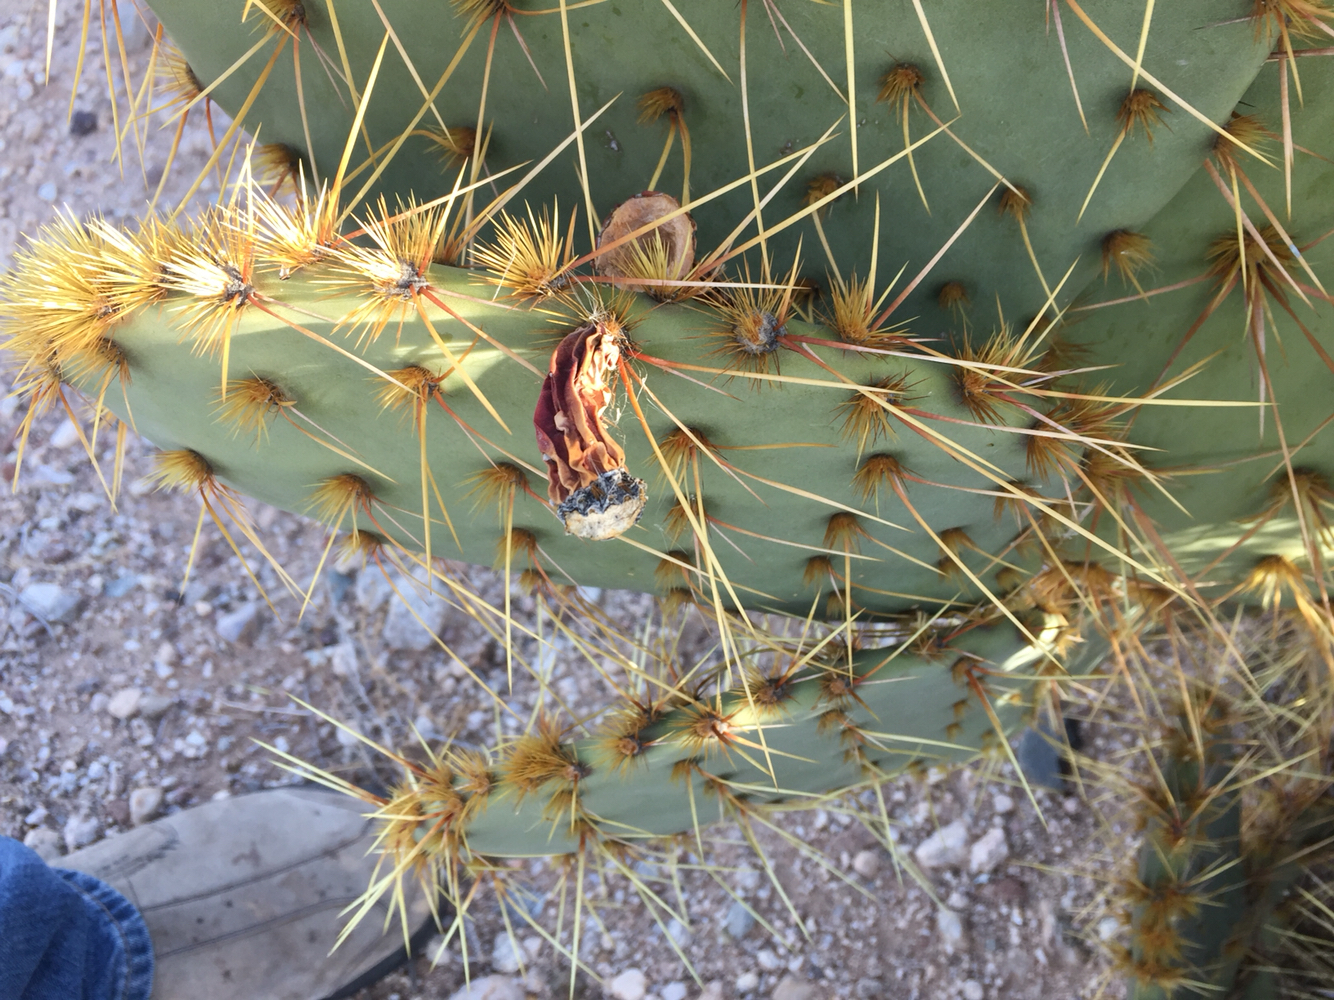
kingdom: Plantae
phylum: Tracheophyta
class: Magnoliopsida
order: Caryophyllales
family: Cactaceae
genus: Opuntia
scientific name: Opuntia engelmannii
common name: Cactus-apple
